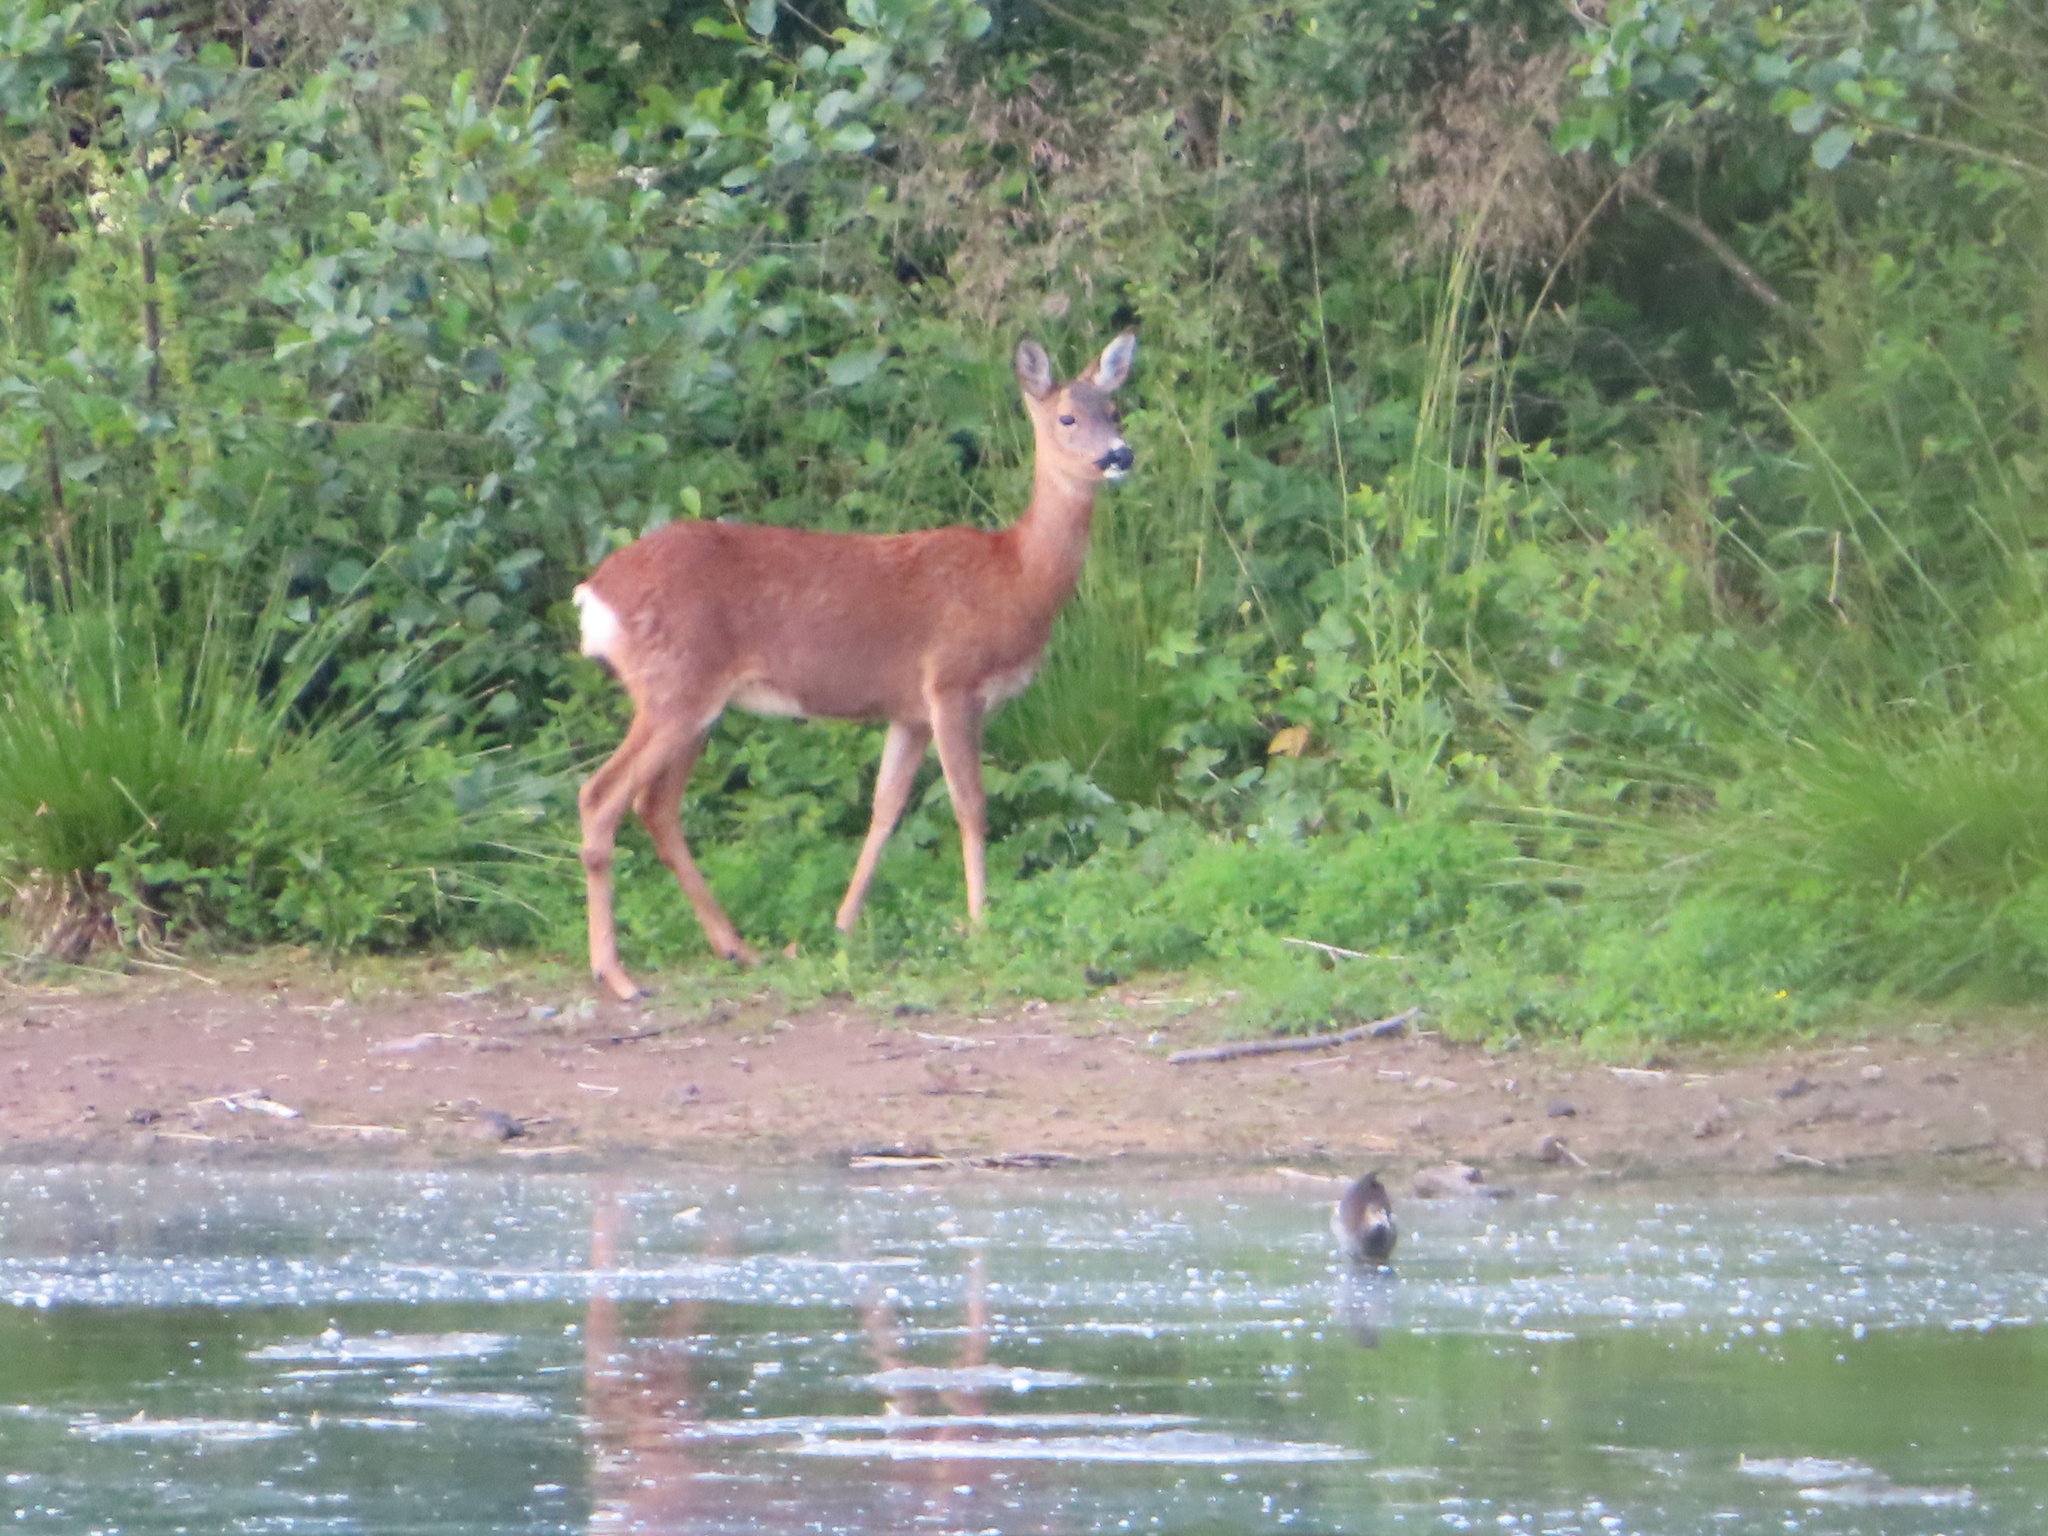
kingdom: Animalia
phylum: Chordata
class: Mammalia
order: Artiodactyla
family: Cervidae
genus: Capreolus
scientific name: Capreolus capreolus
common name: Western roe deer
